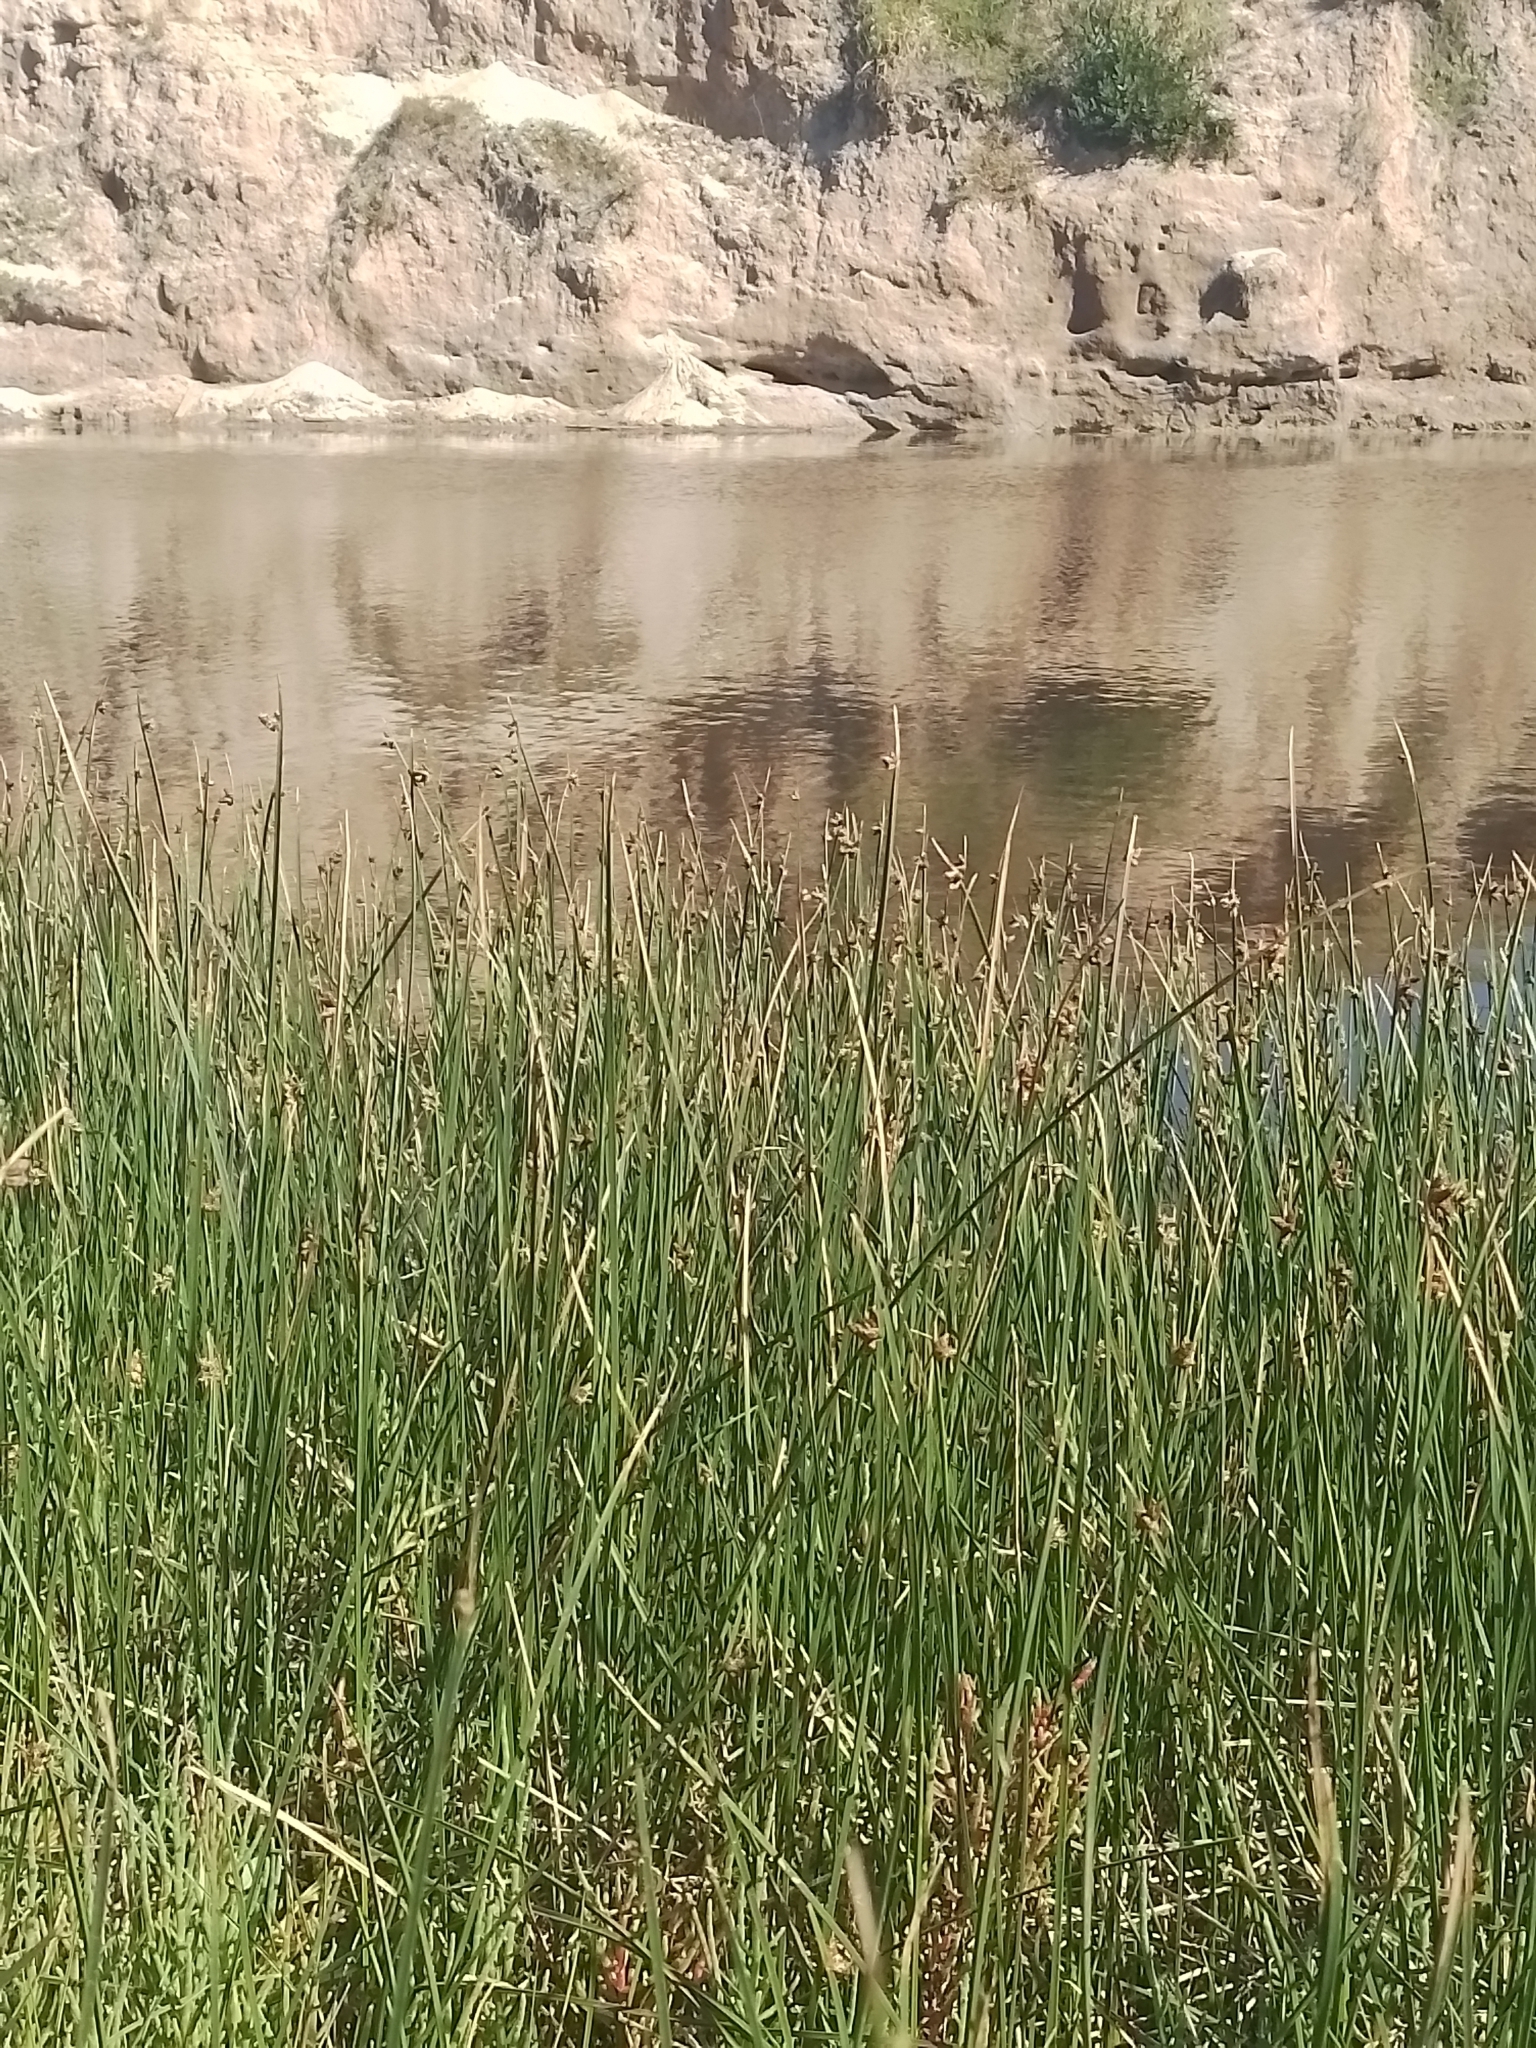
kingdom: Plantae
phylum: Tracheophyta
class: Liliopsida
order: Poales
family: Cyperaceae
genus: Schoenoplectus
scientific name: Schoenoplectus americanus
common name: American three-square bulrush
